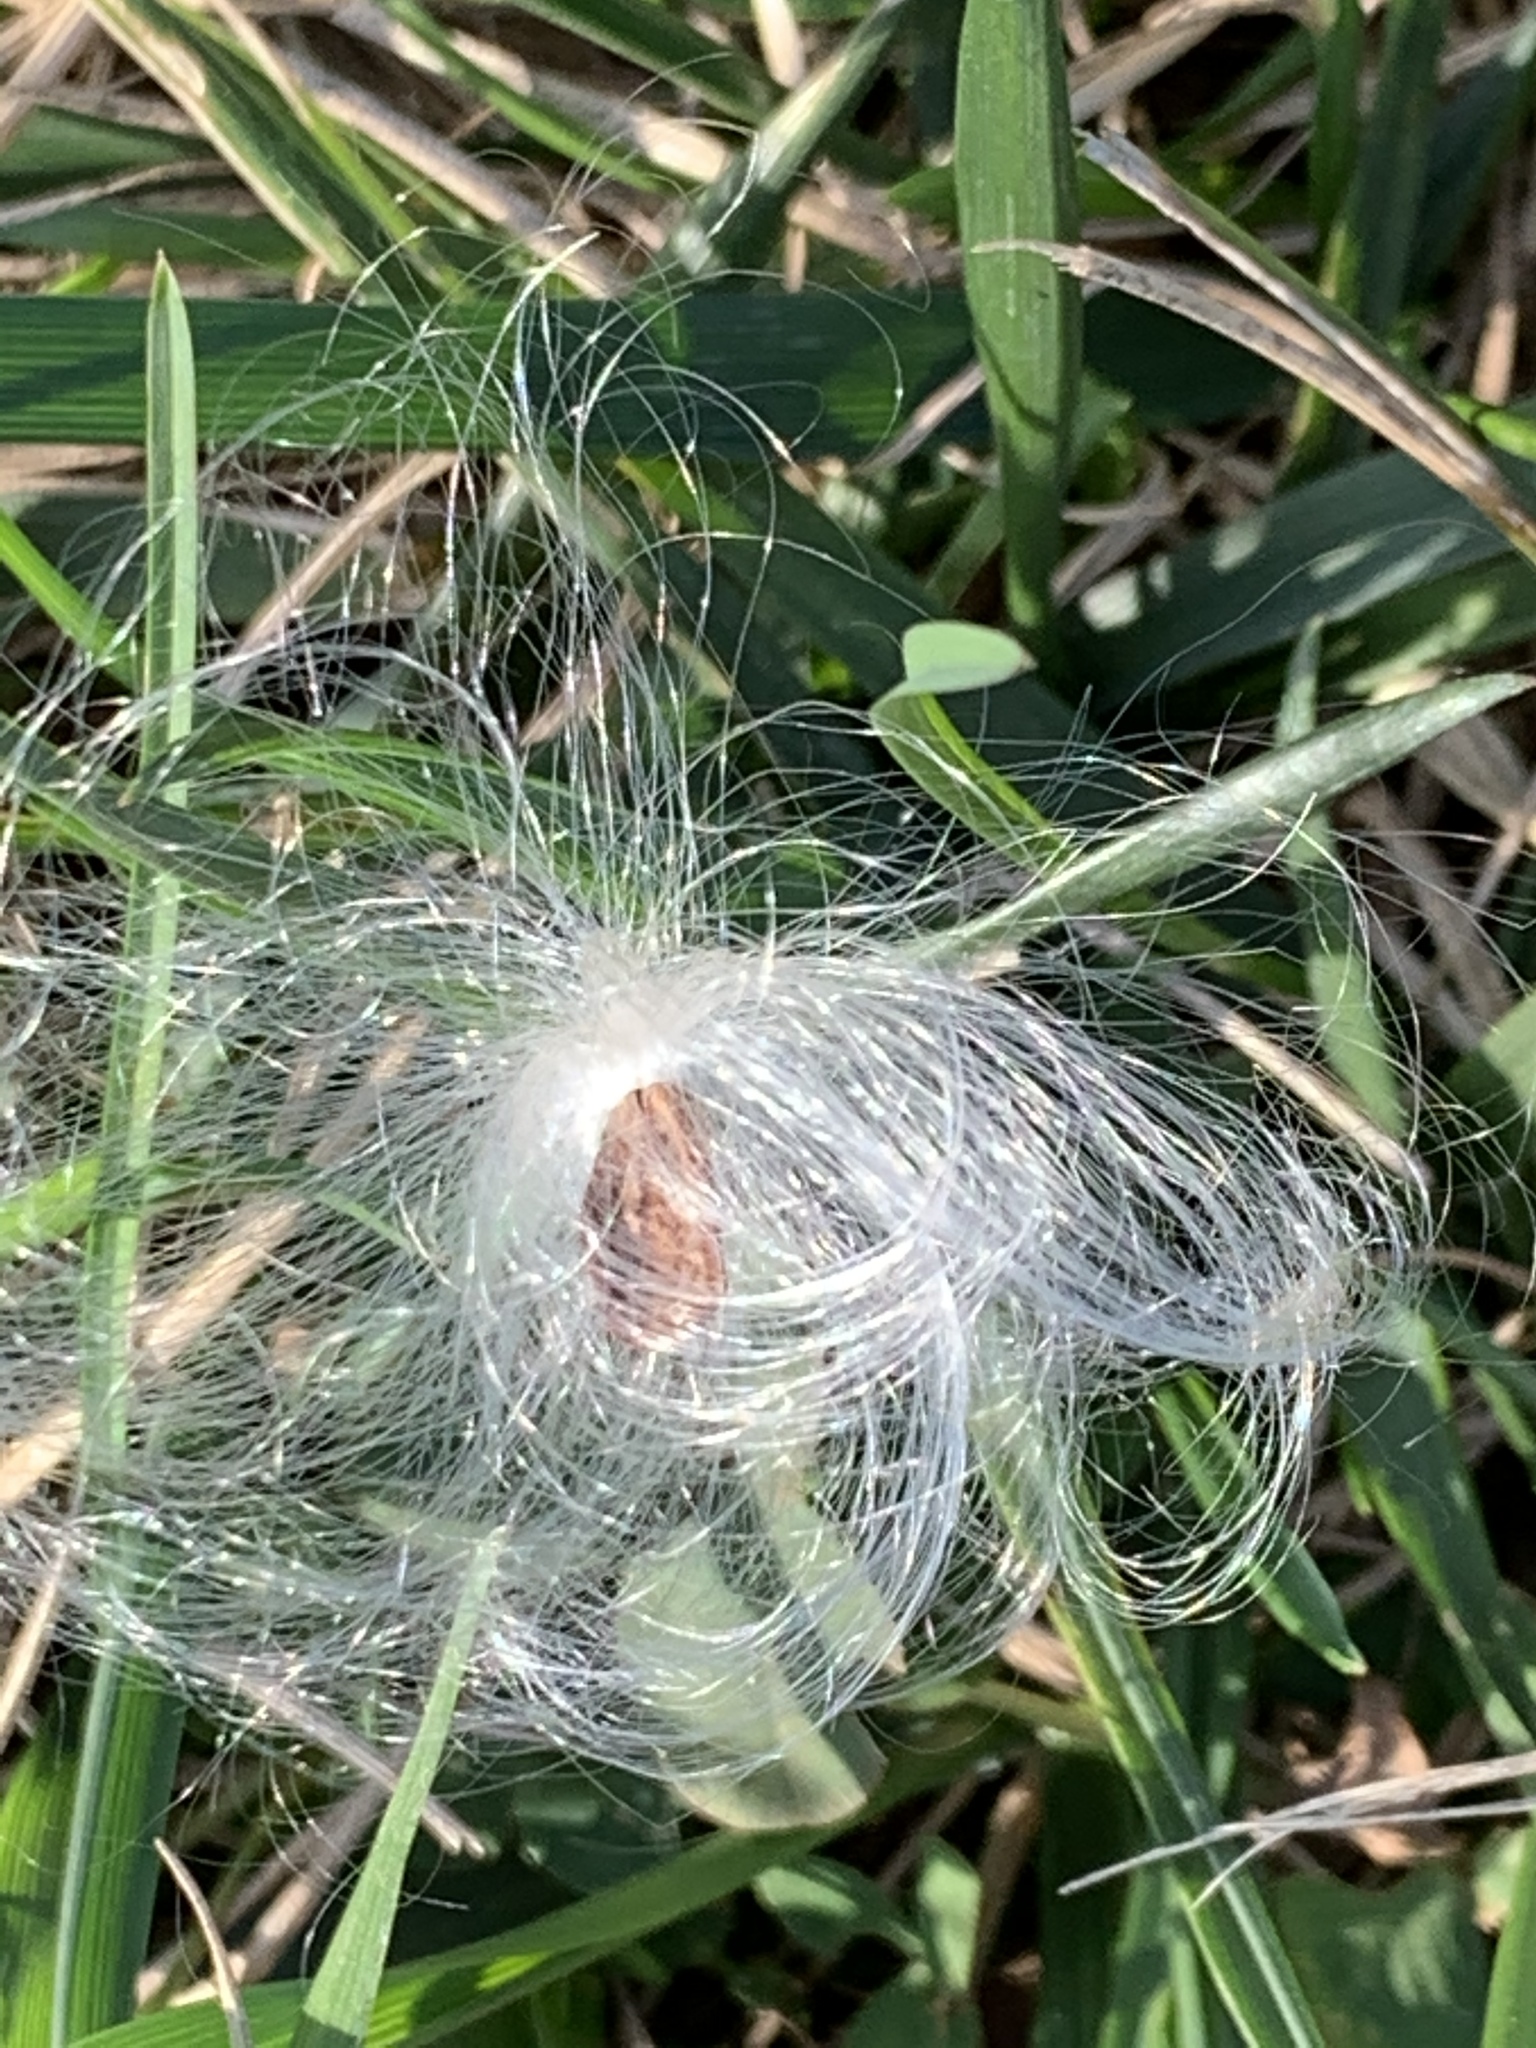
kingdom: Plantae
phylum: Tracheophyta
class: Magnoliopsida
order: Gentianales
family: Apocynaceae
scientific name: Apocynaceae
